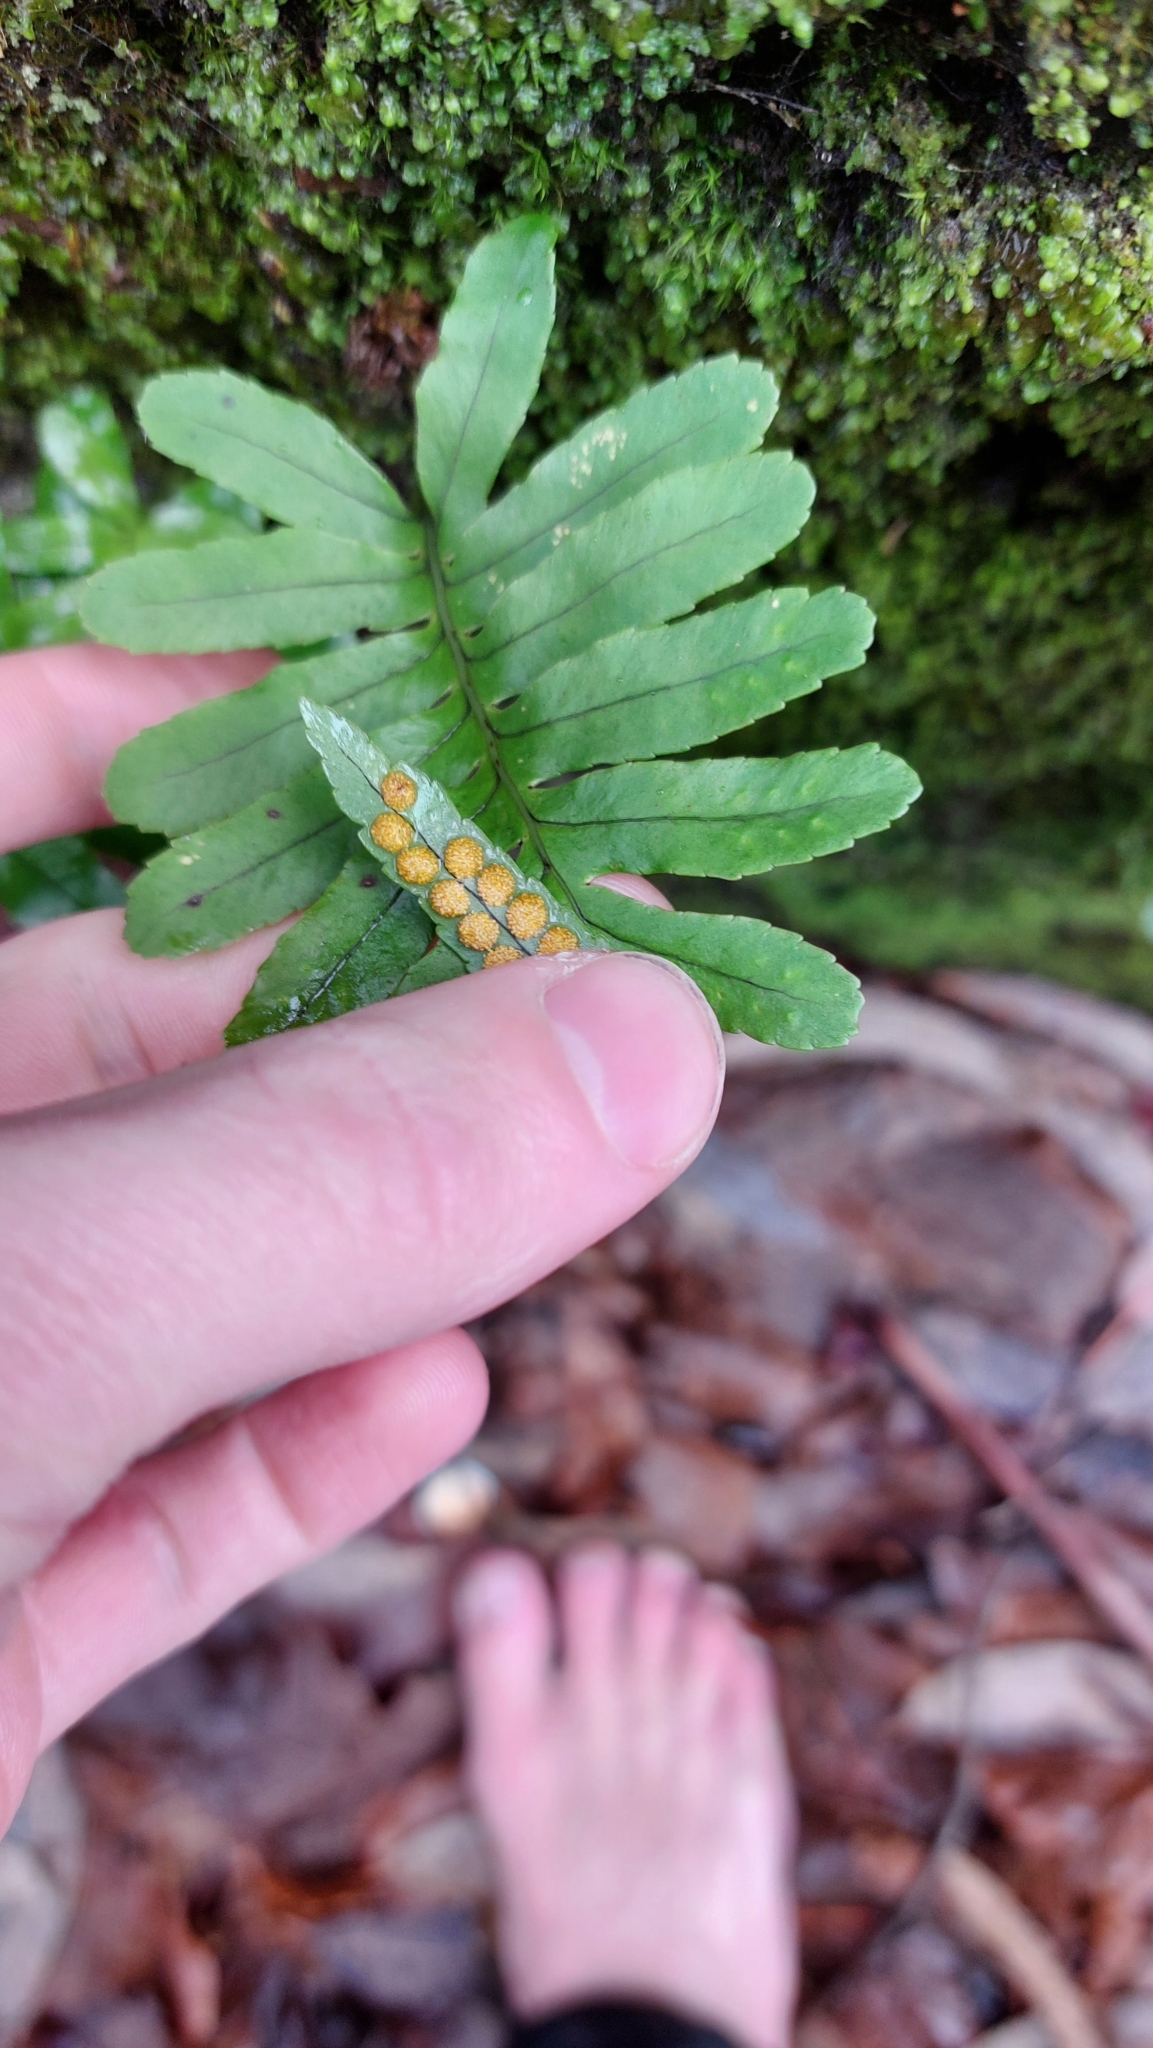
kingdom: Plantae
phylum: Tracheophyta
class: Polypodiopsida
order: Polypodiales
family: Polypodiaceae
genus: Polypodium
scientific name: Polypodium macaronesicum
